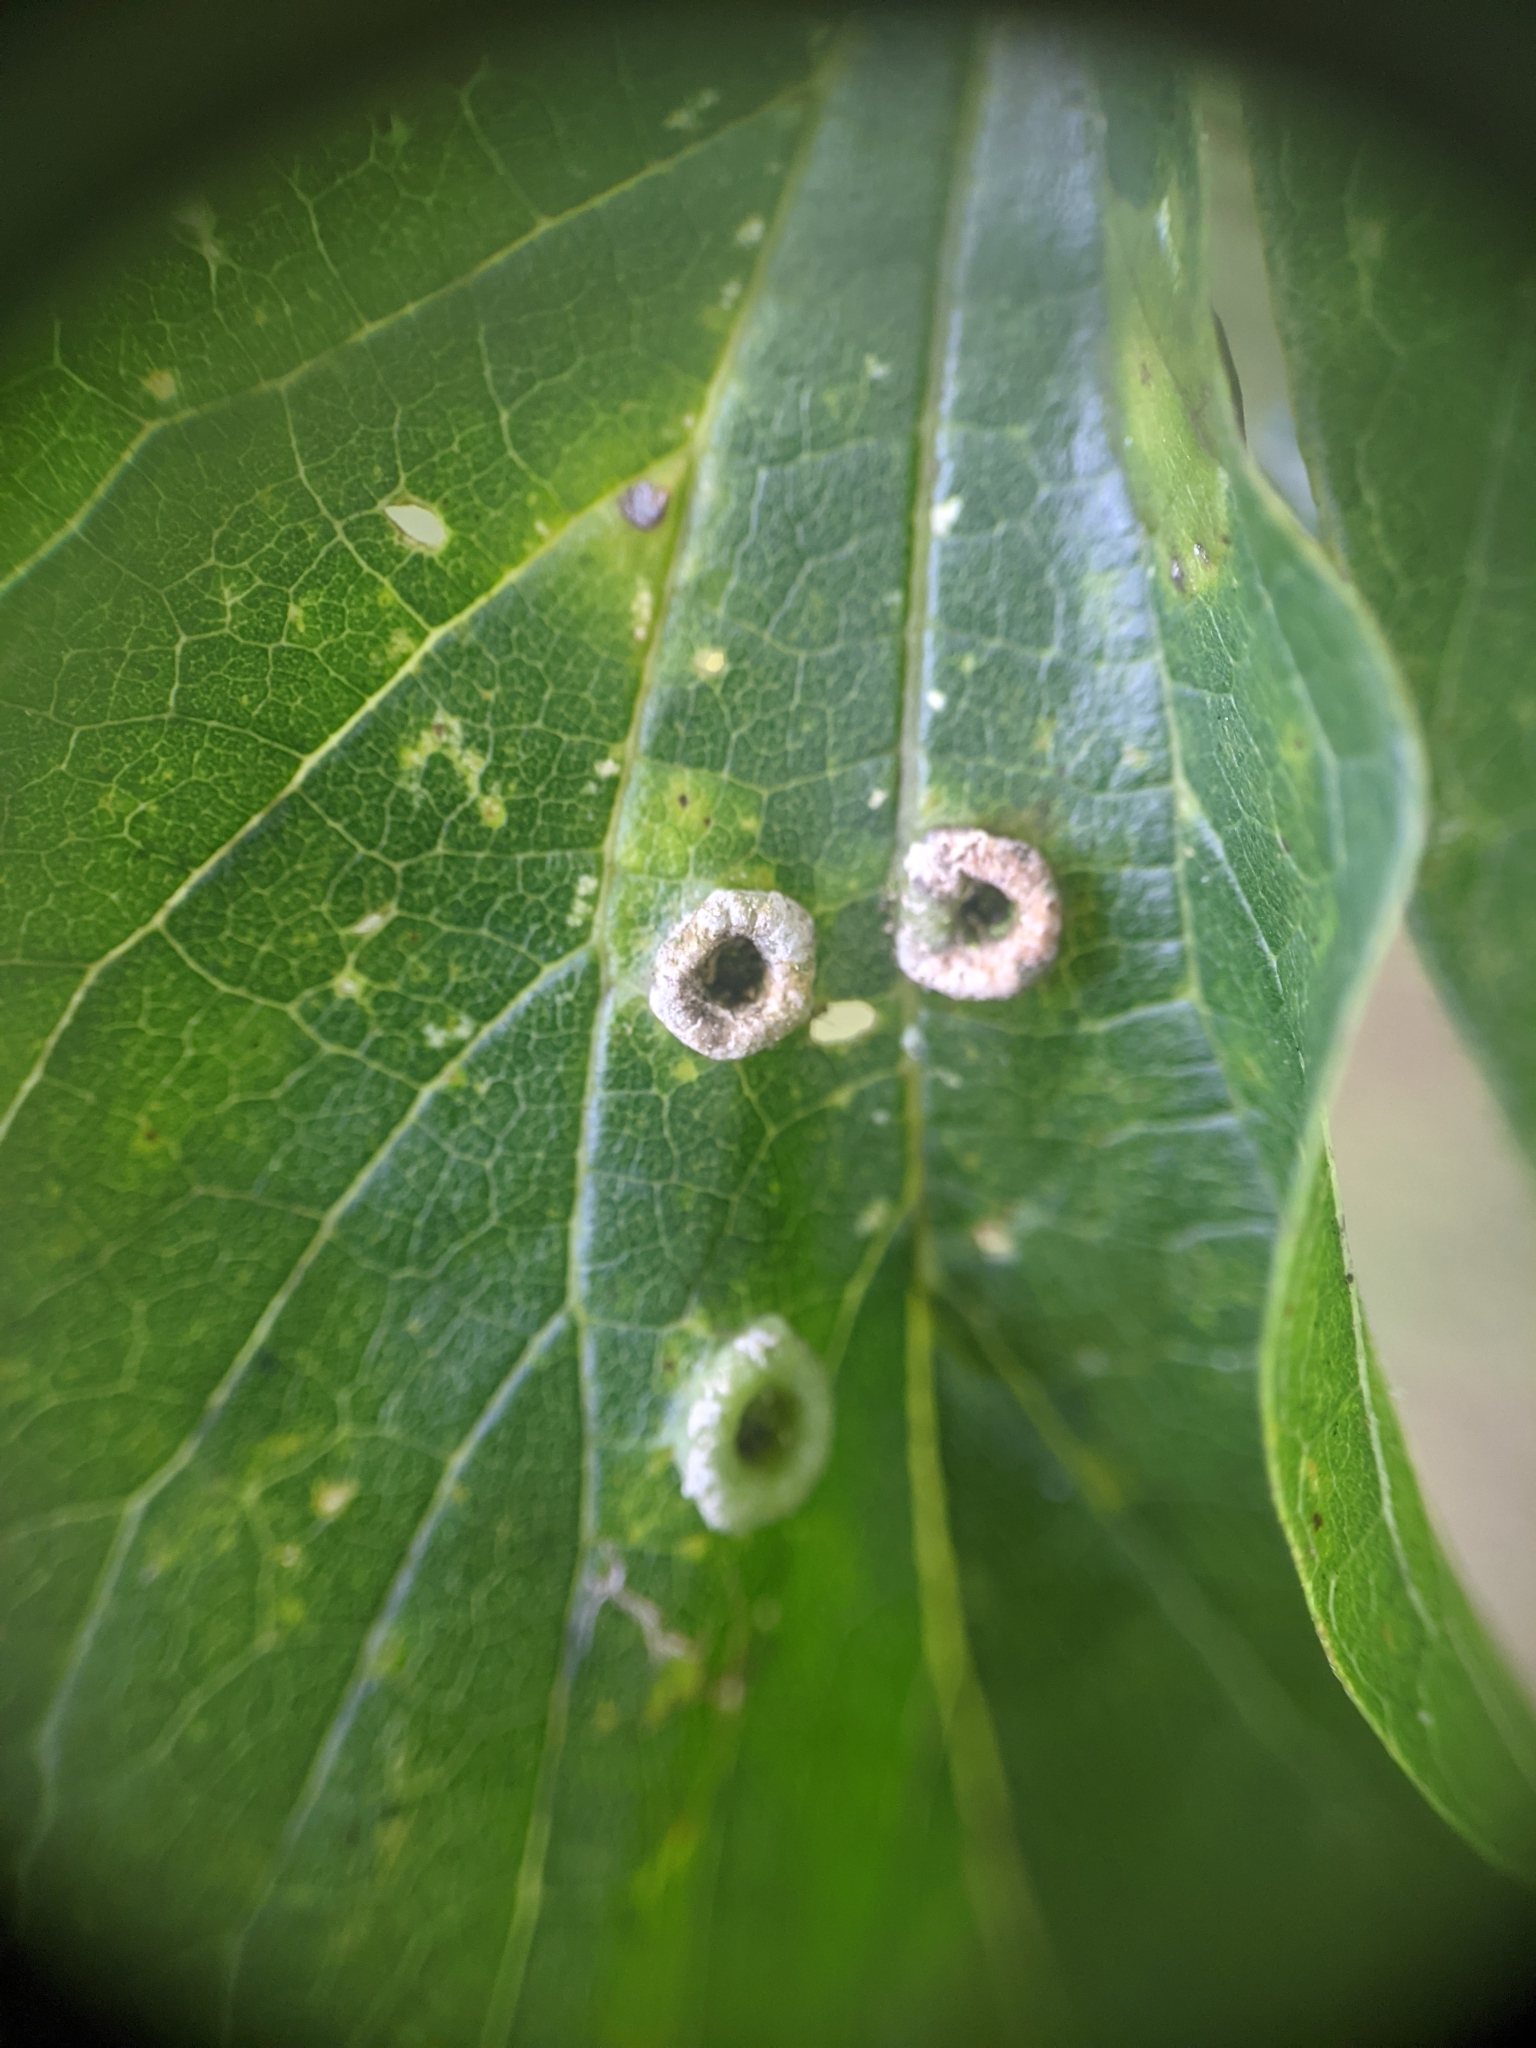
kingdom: Animalia
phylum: Arthropoda
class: Insecta
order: Hemiptera
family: Aphalaridae
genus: Pachypsylla
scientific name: Pachypsylla celtidismamma
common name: Hackberry nipplegall psyllid
